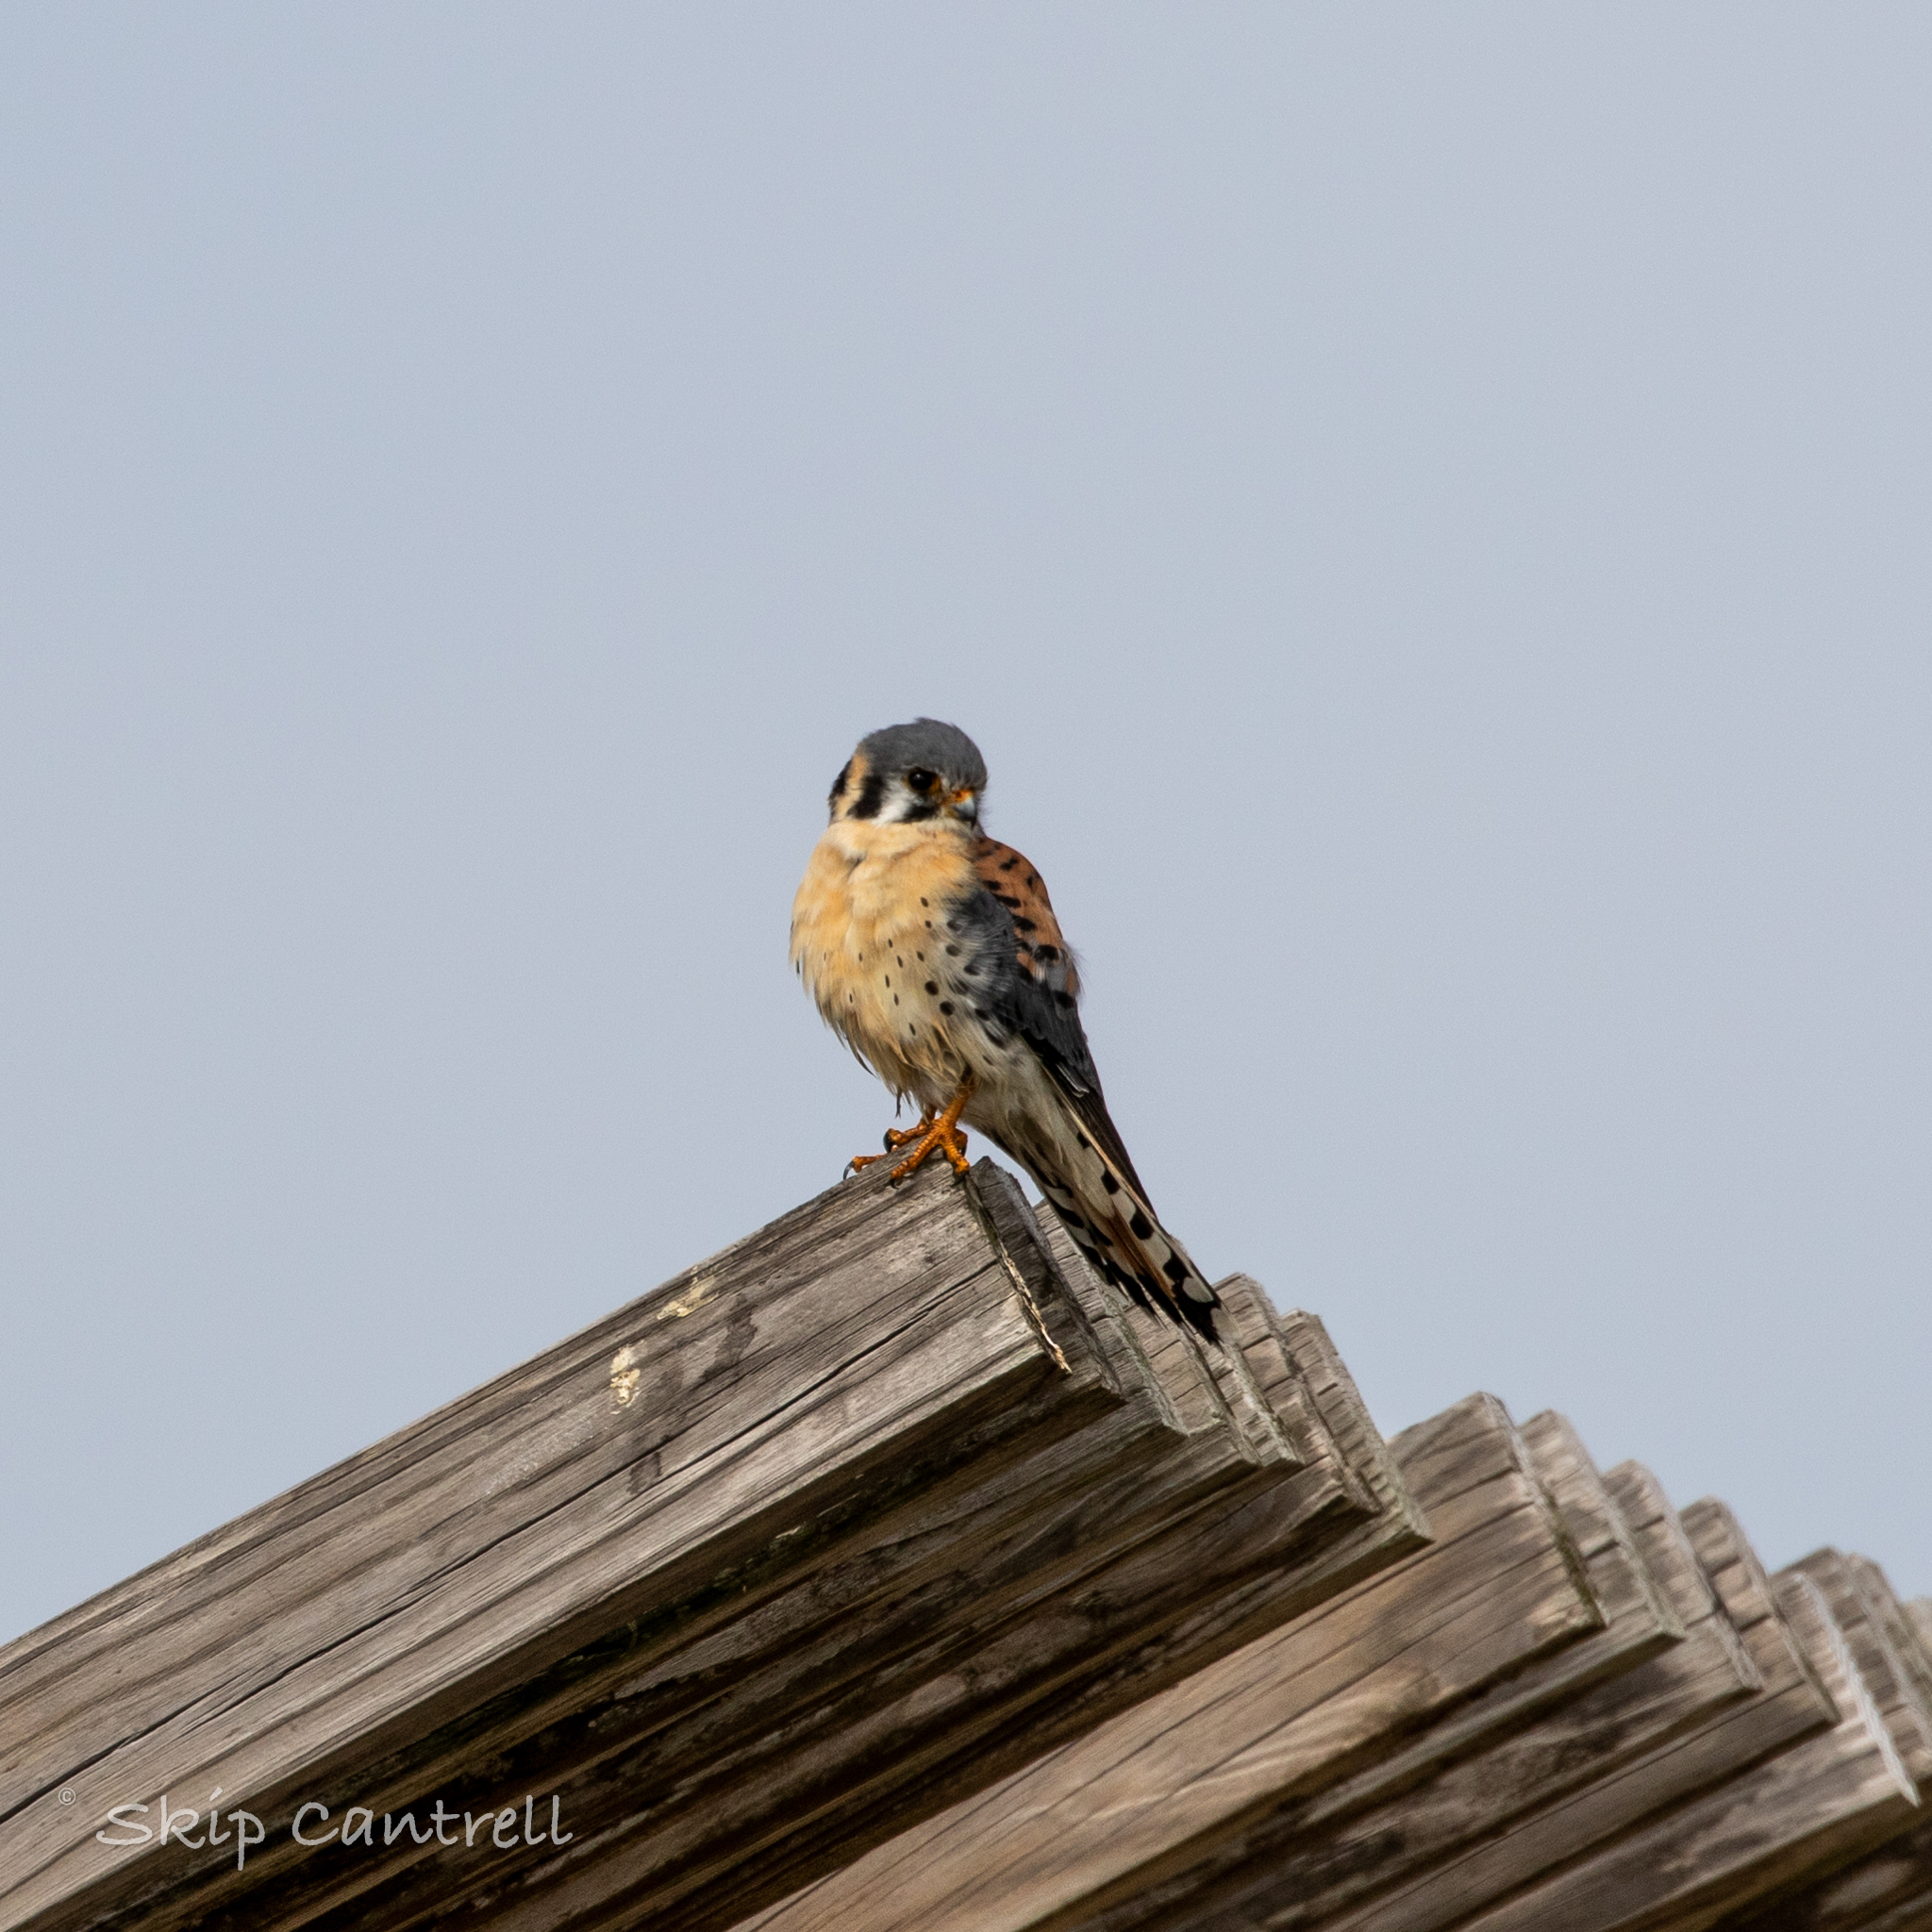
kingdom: Animalia
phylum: Chordata
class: Aves
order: Falconiformes
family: Falconidae
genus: Falco
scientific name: Falco sparverius
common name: American kestrel
